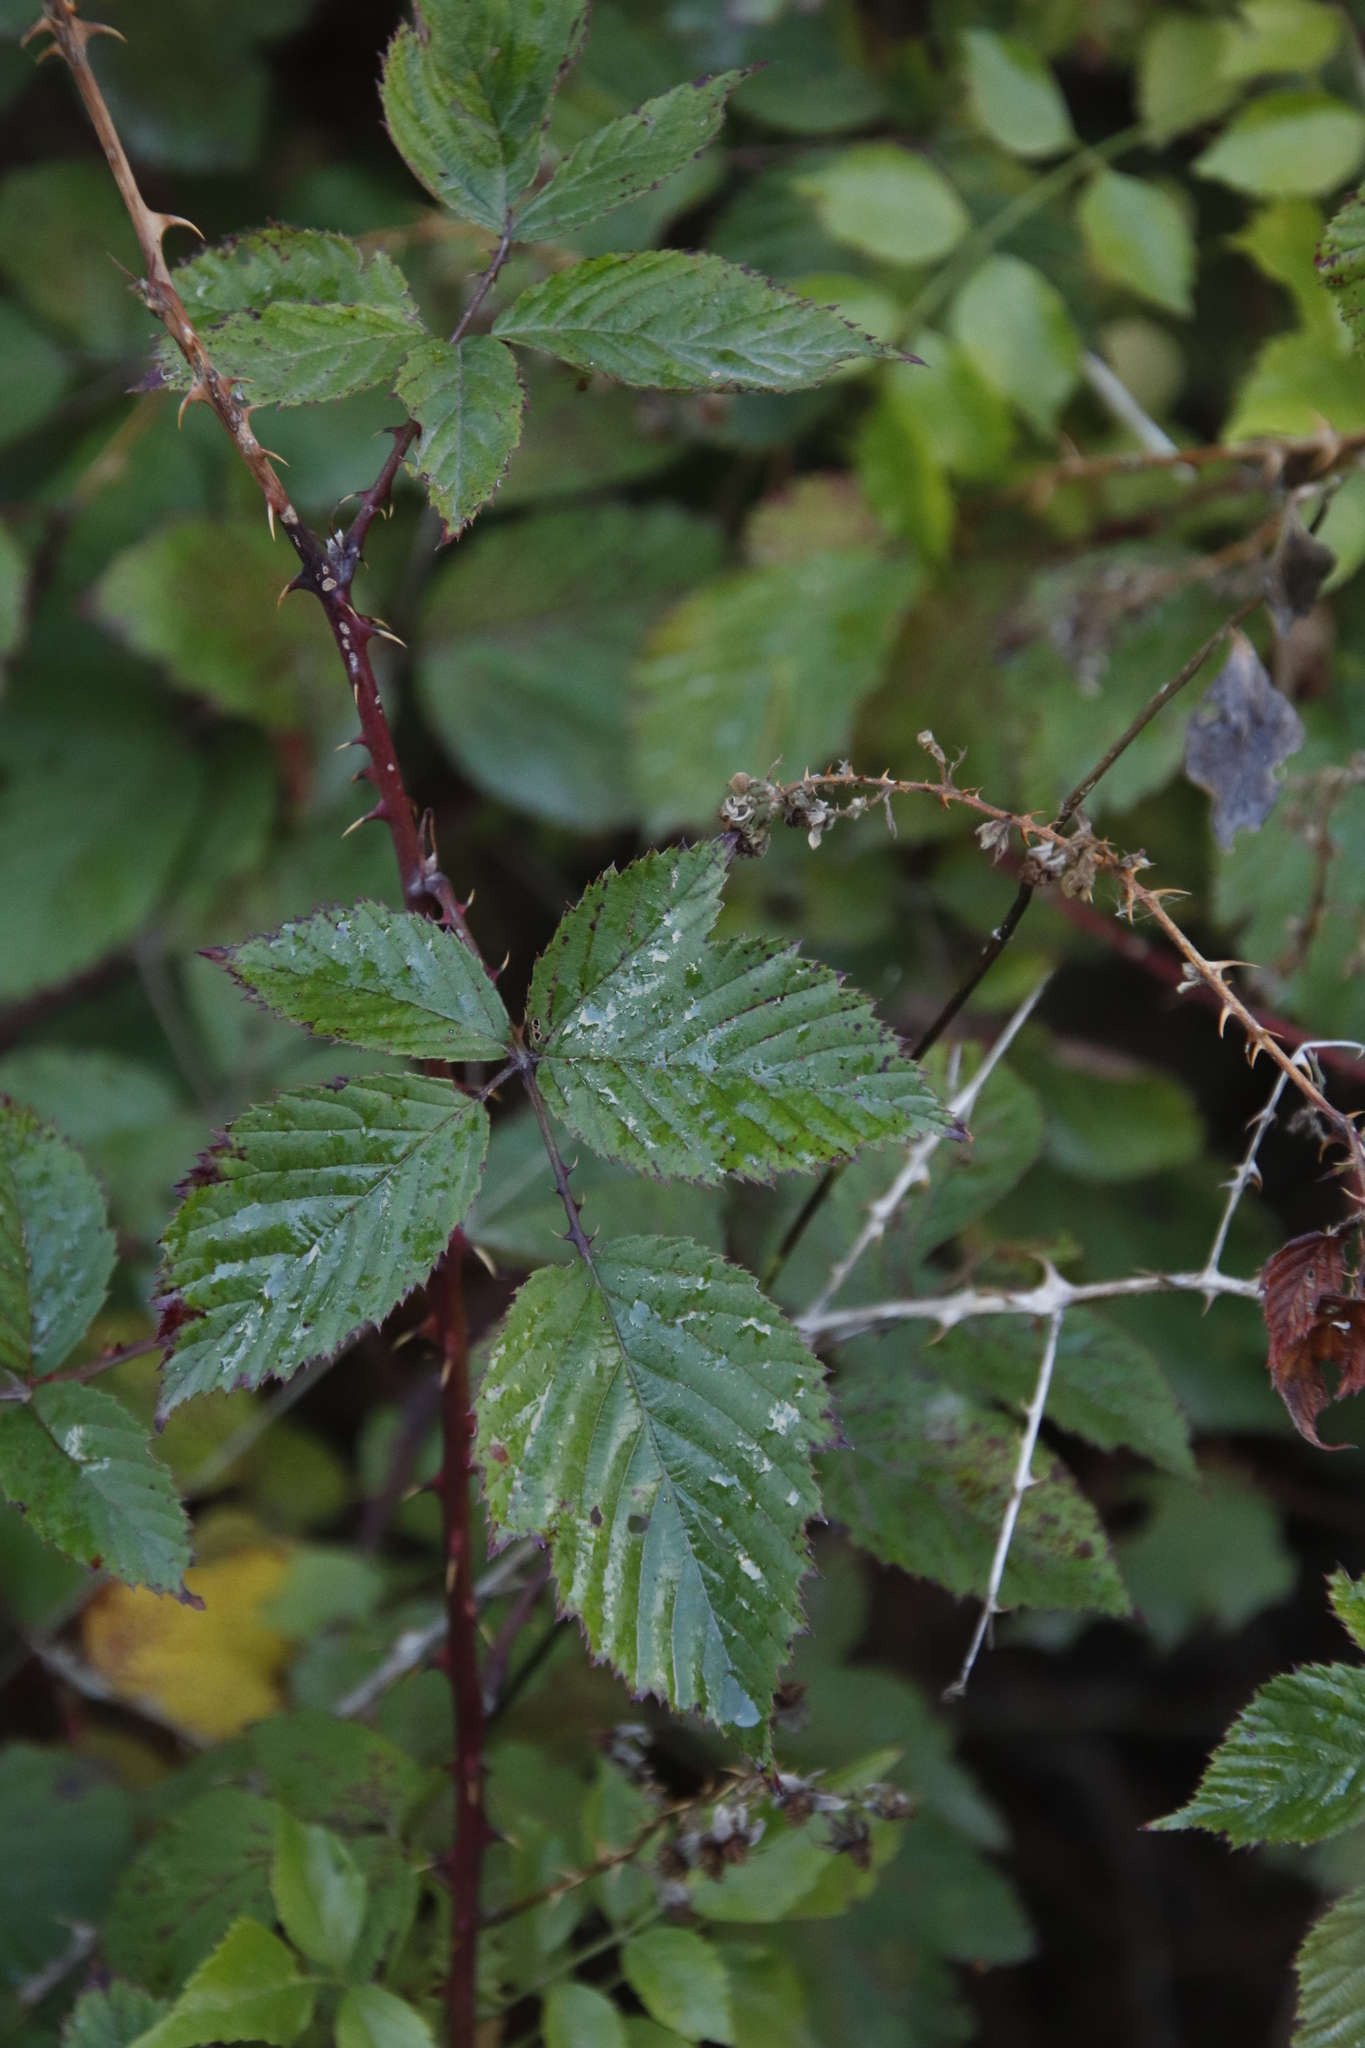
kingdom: Plantae
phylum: Tracheophyta
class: Magnoliopsida
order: Rosales
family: Rosaceae
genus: Rubus
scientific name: Rubus affinis
